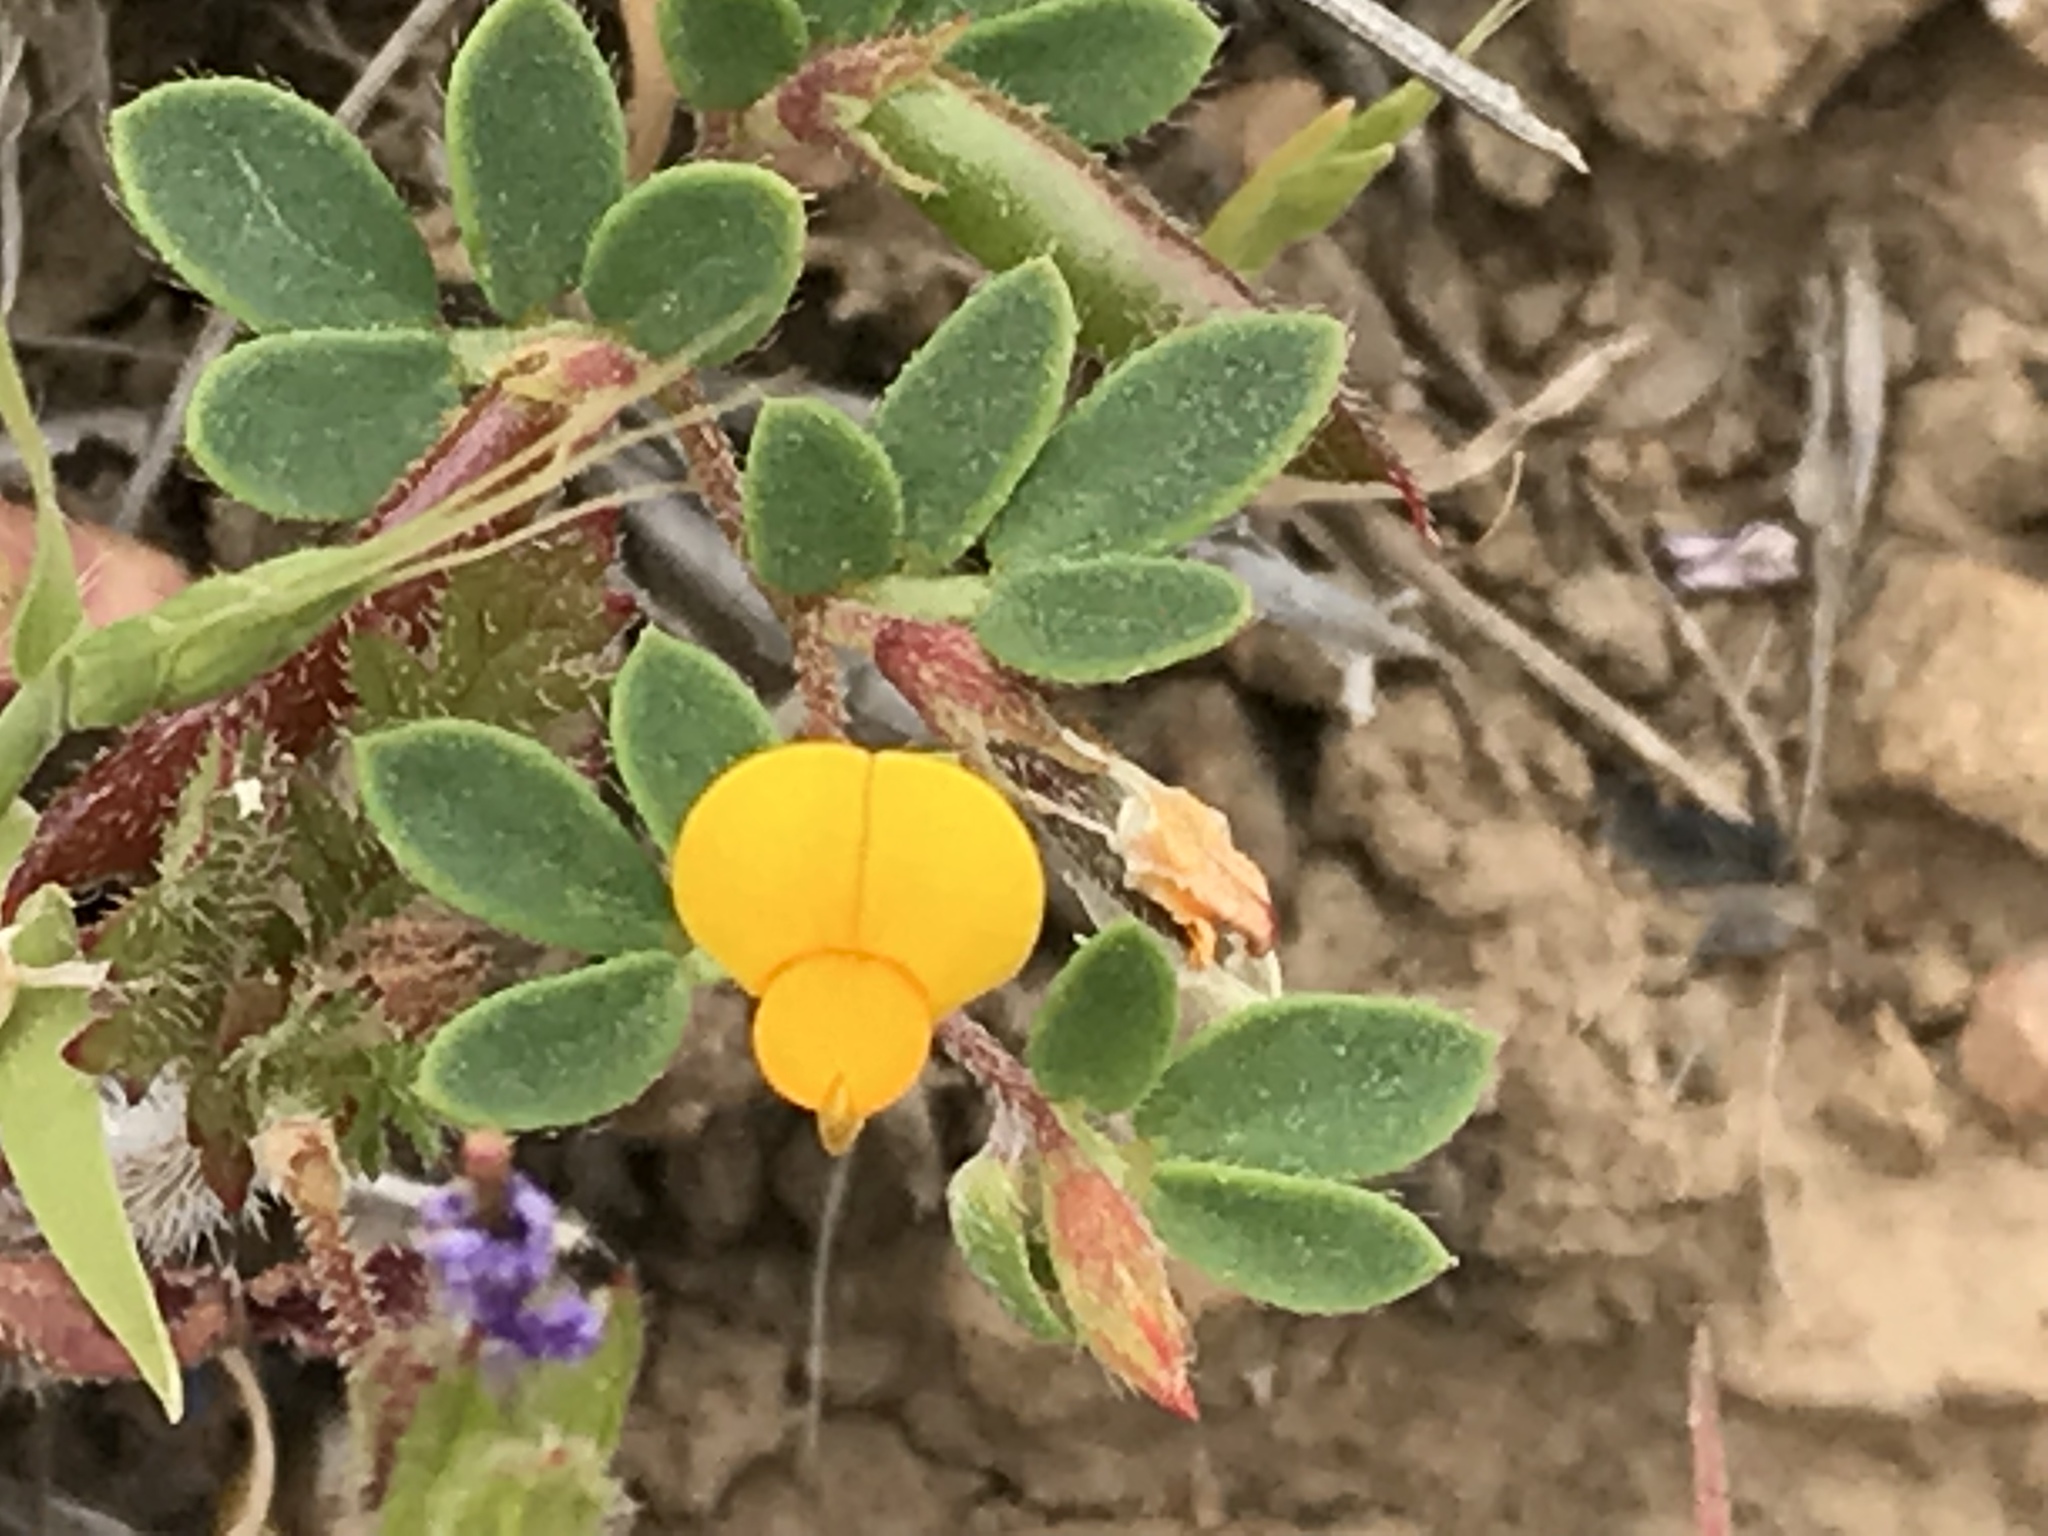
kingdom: Plantae
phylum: Tracheophyta
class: Magnoliopsida
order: Fabales
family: Fabaceae
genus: Acmispon
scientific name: Acmispon wrangelianus
